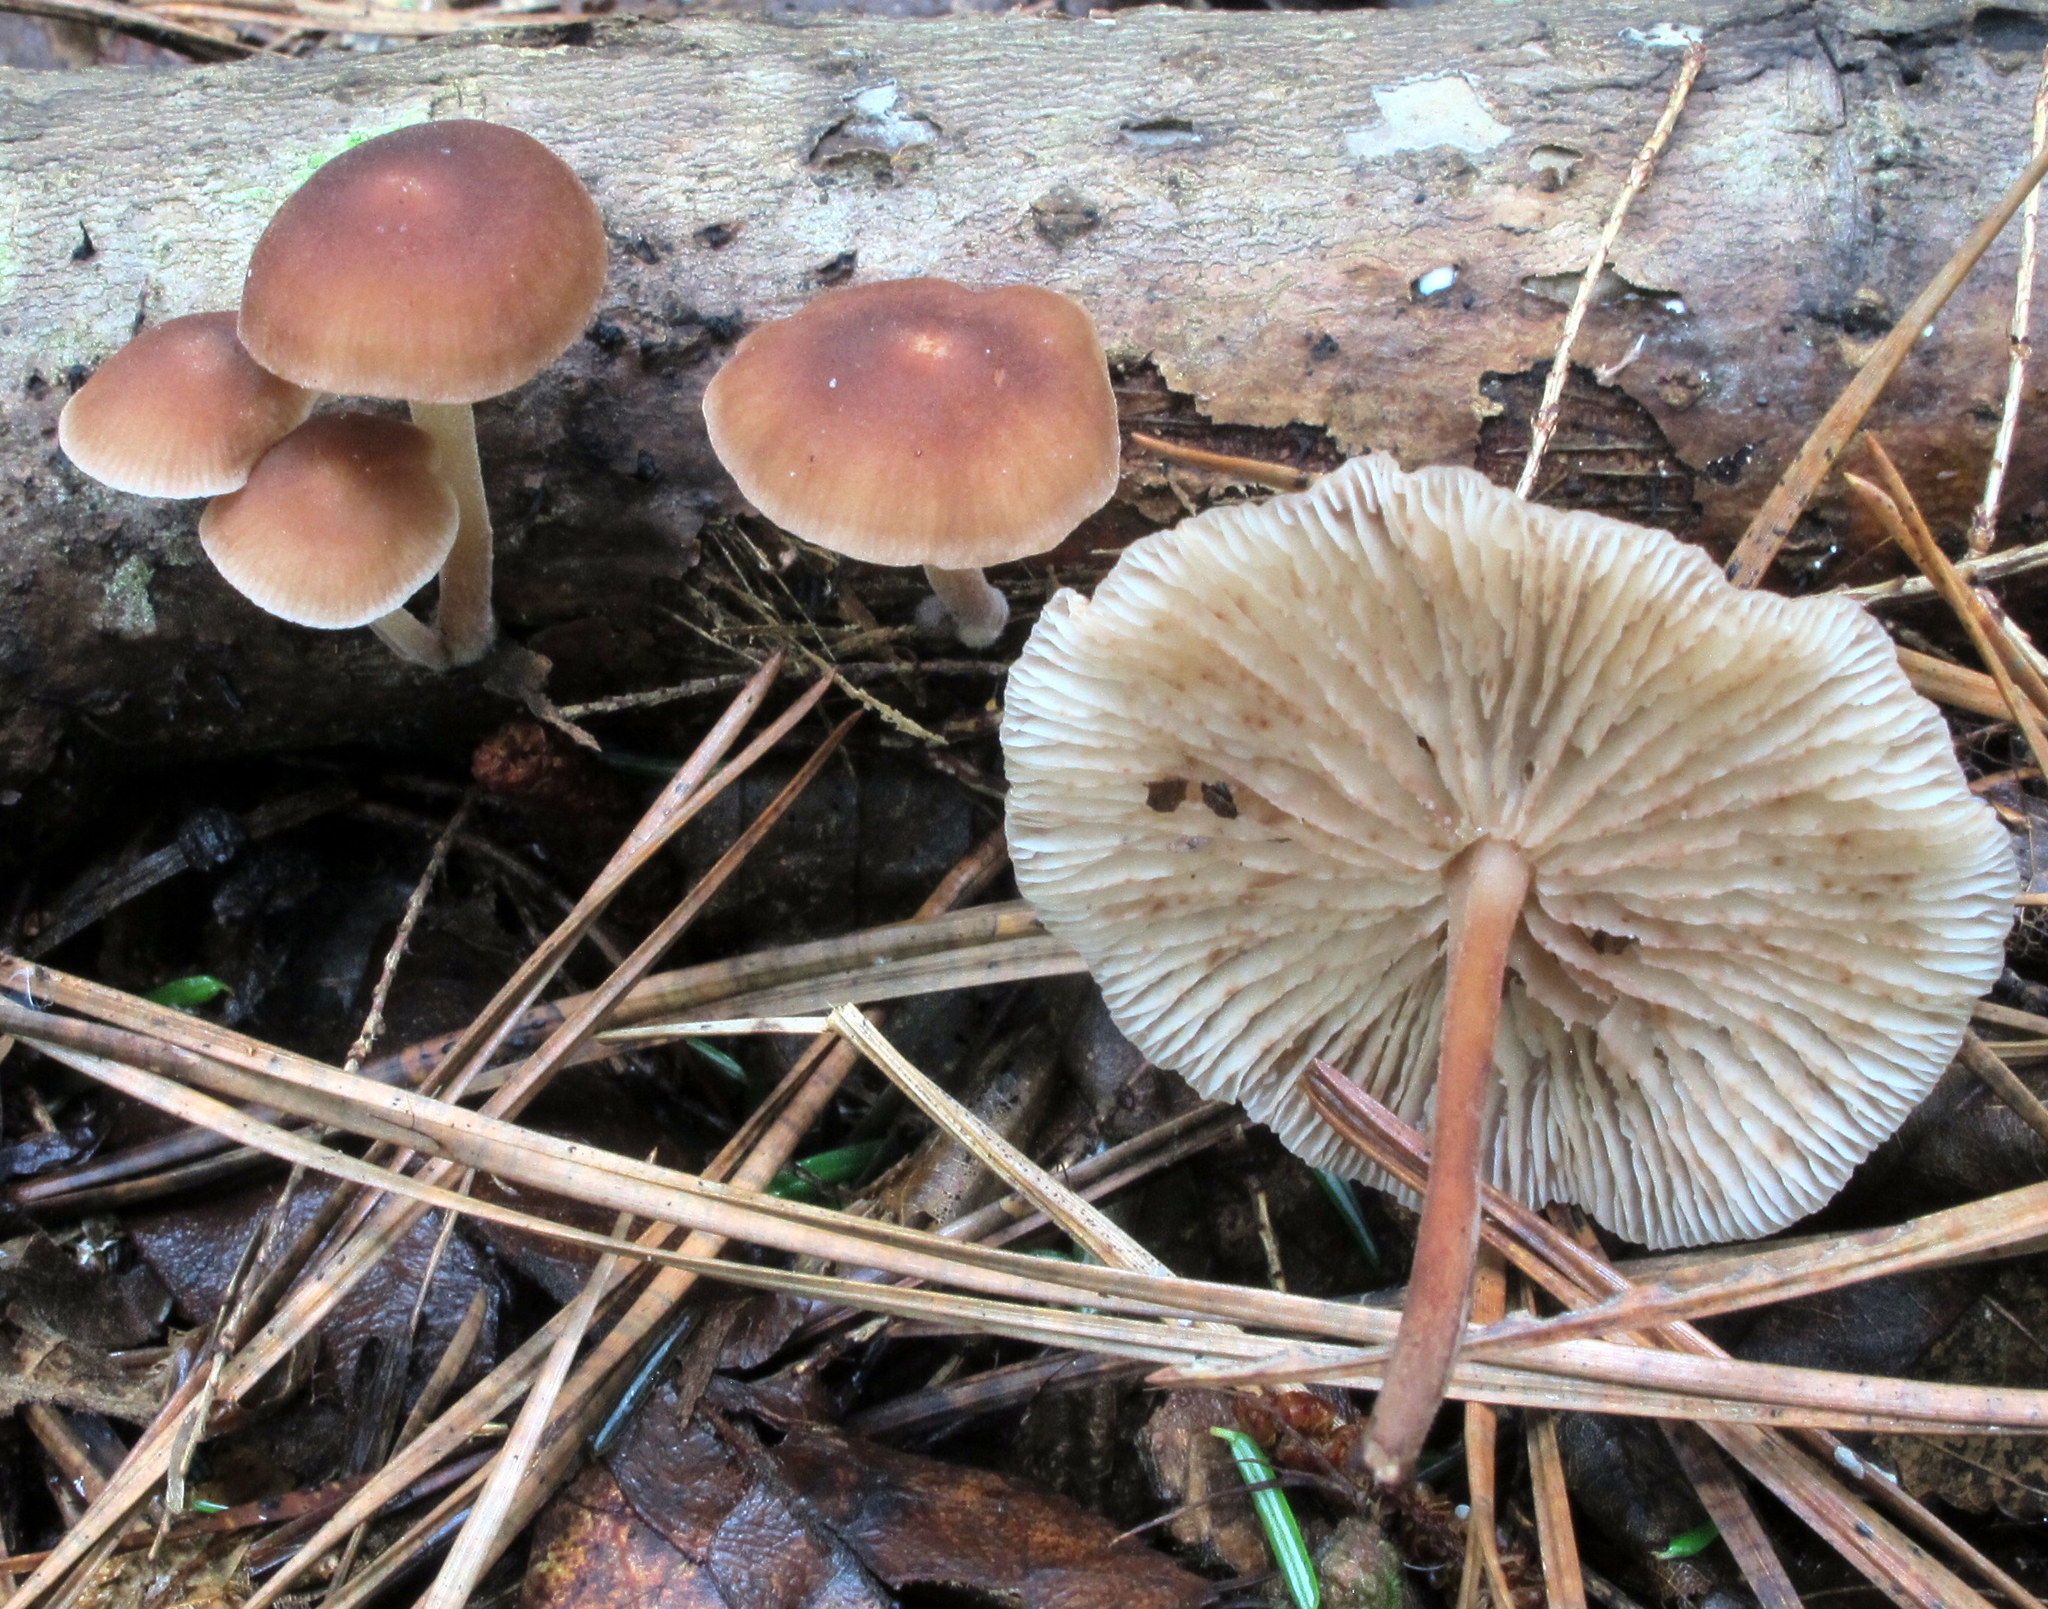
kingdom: Fungi
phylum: Basidiomycota
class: Agaricomycetes
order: Agaricales
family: Omphalotaceae
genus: Collybiopsis
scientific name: Collybiopsis dichroa
